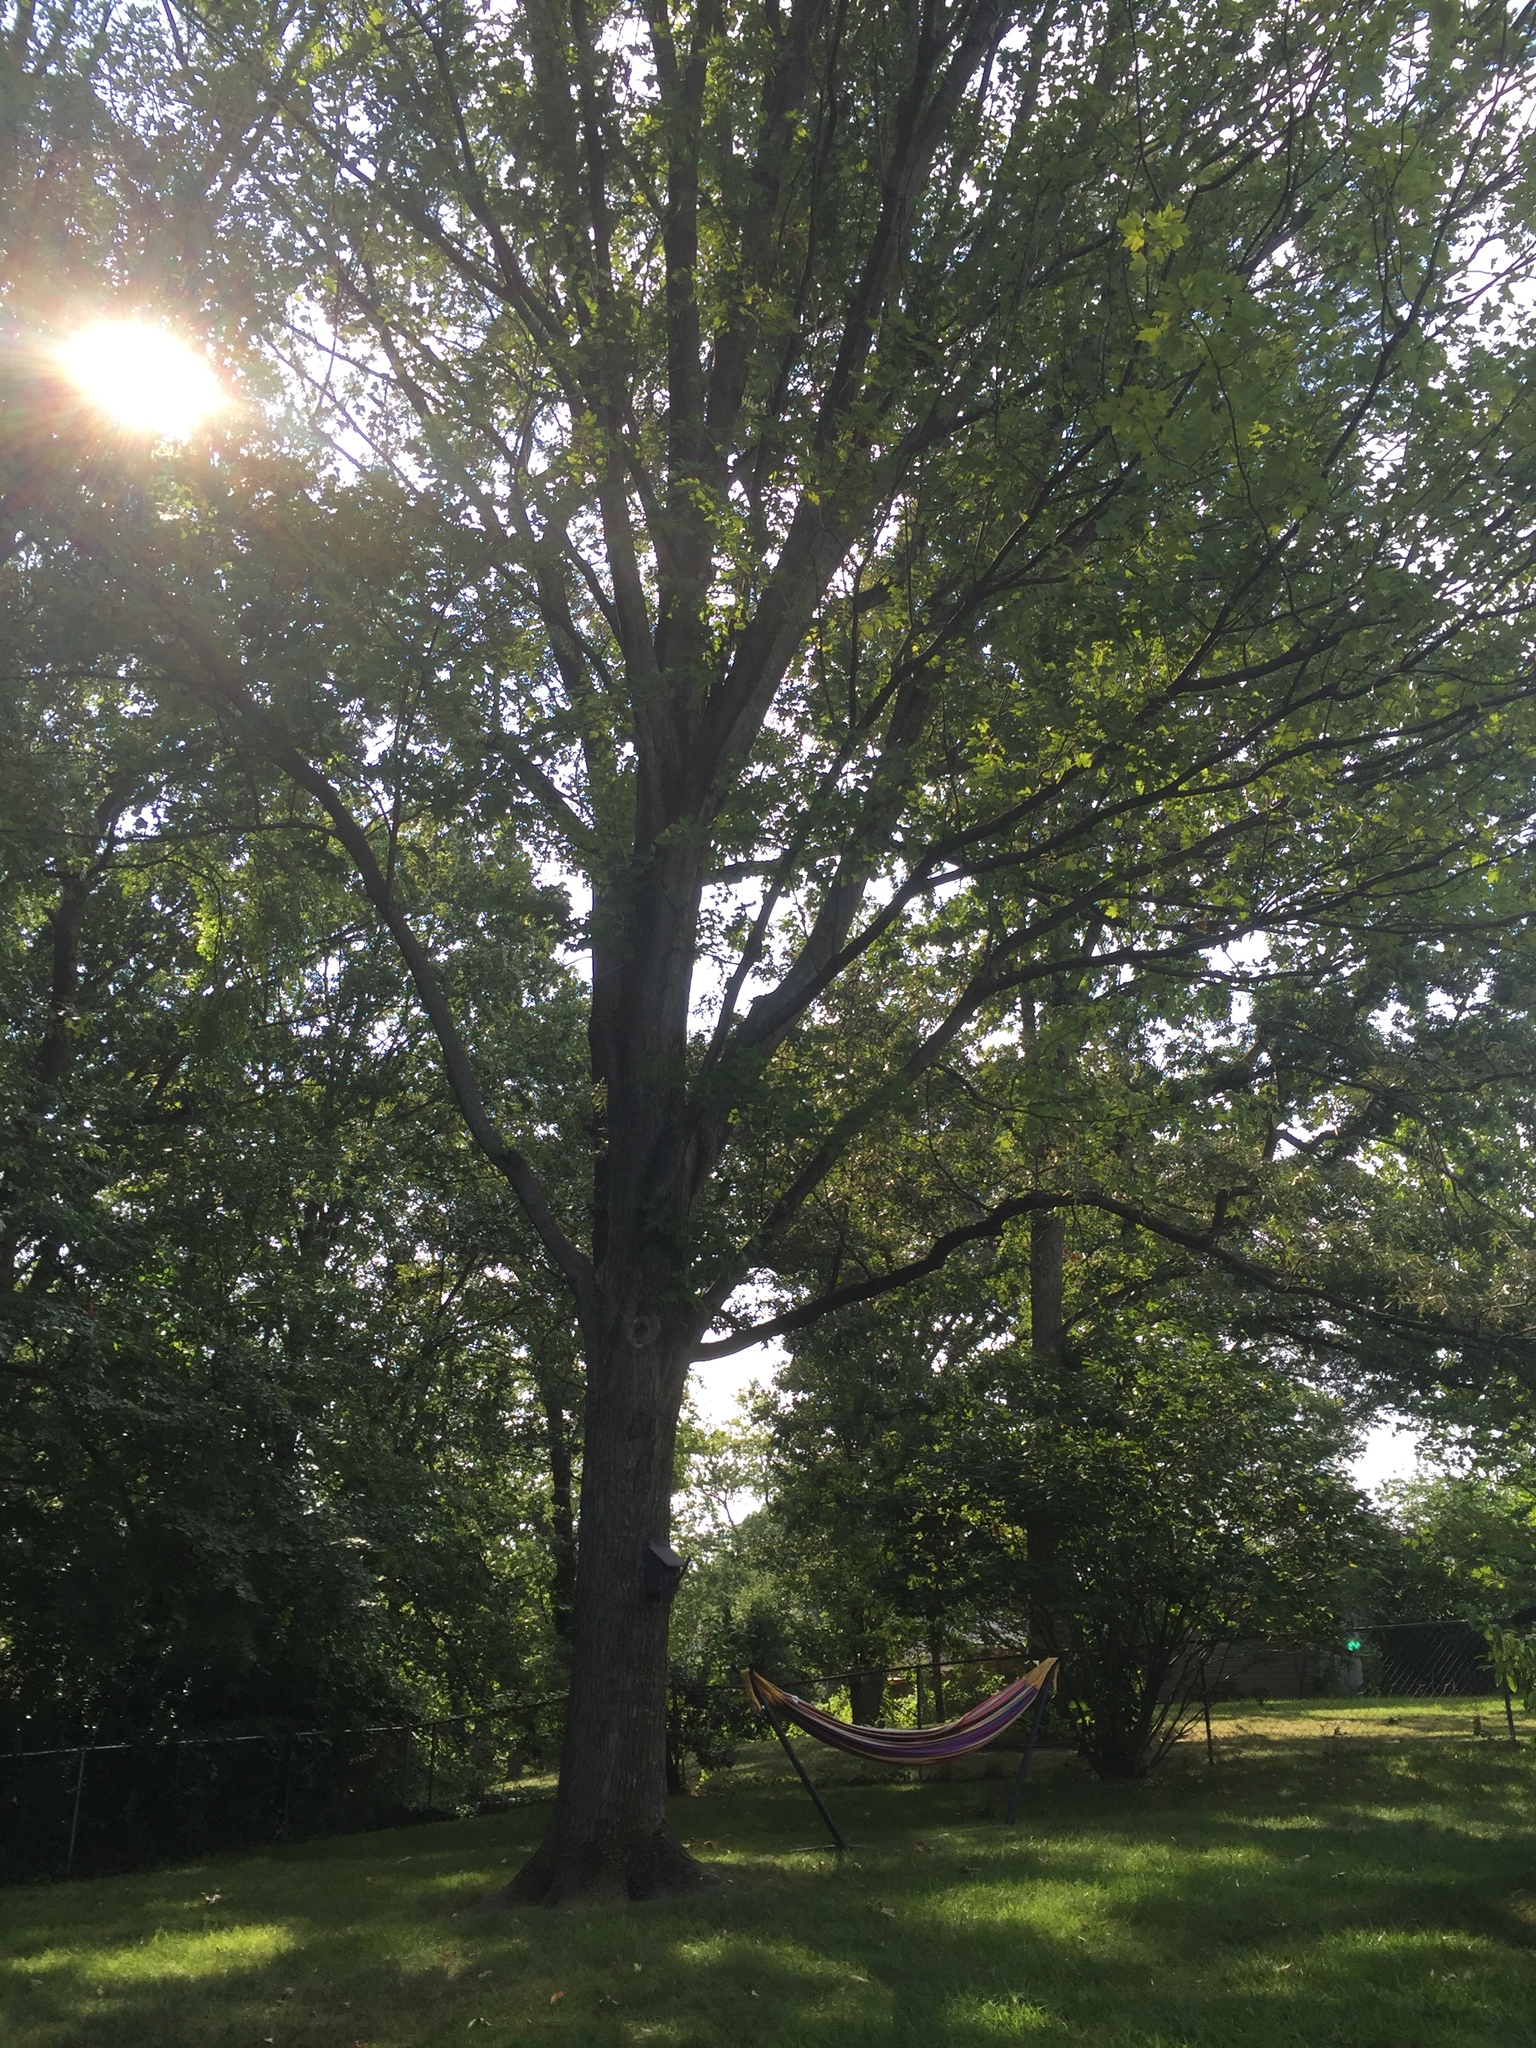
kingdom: Plantae
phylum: Tracheophyta
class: Magnoliopsida
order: Sapindales
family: Sapindaceae
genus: Acer
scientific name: Acer saccharum
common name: Sugar maple
